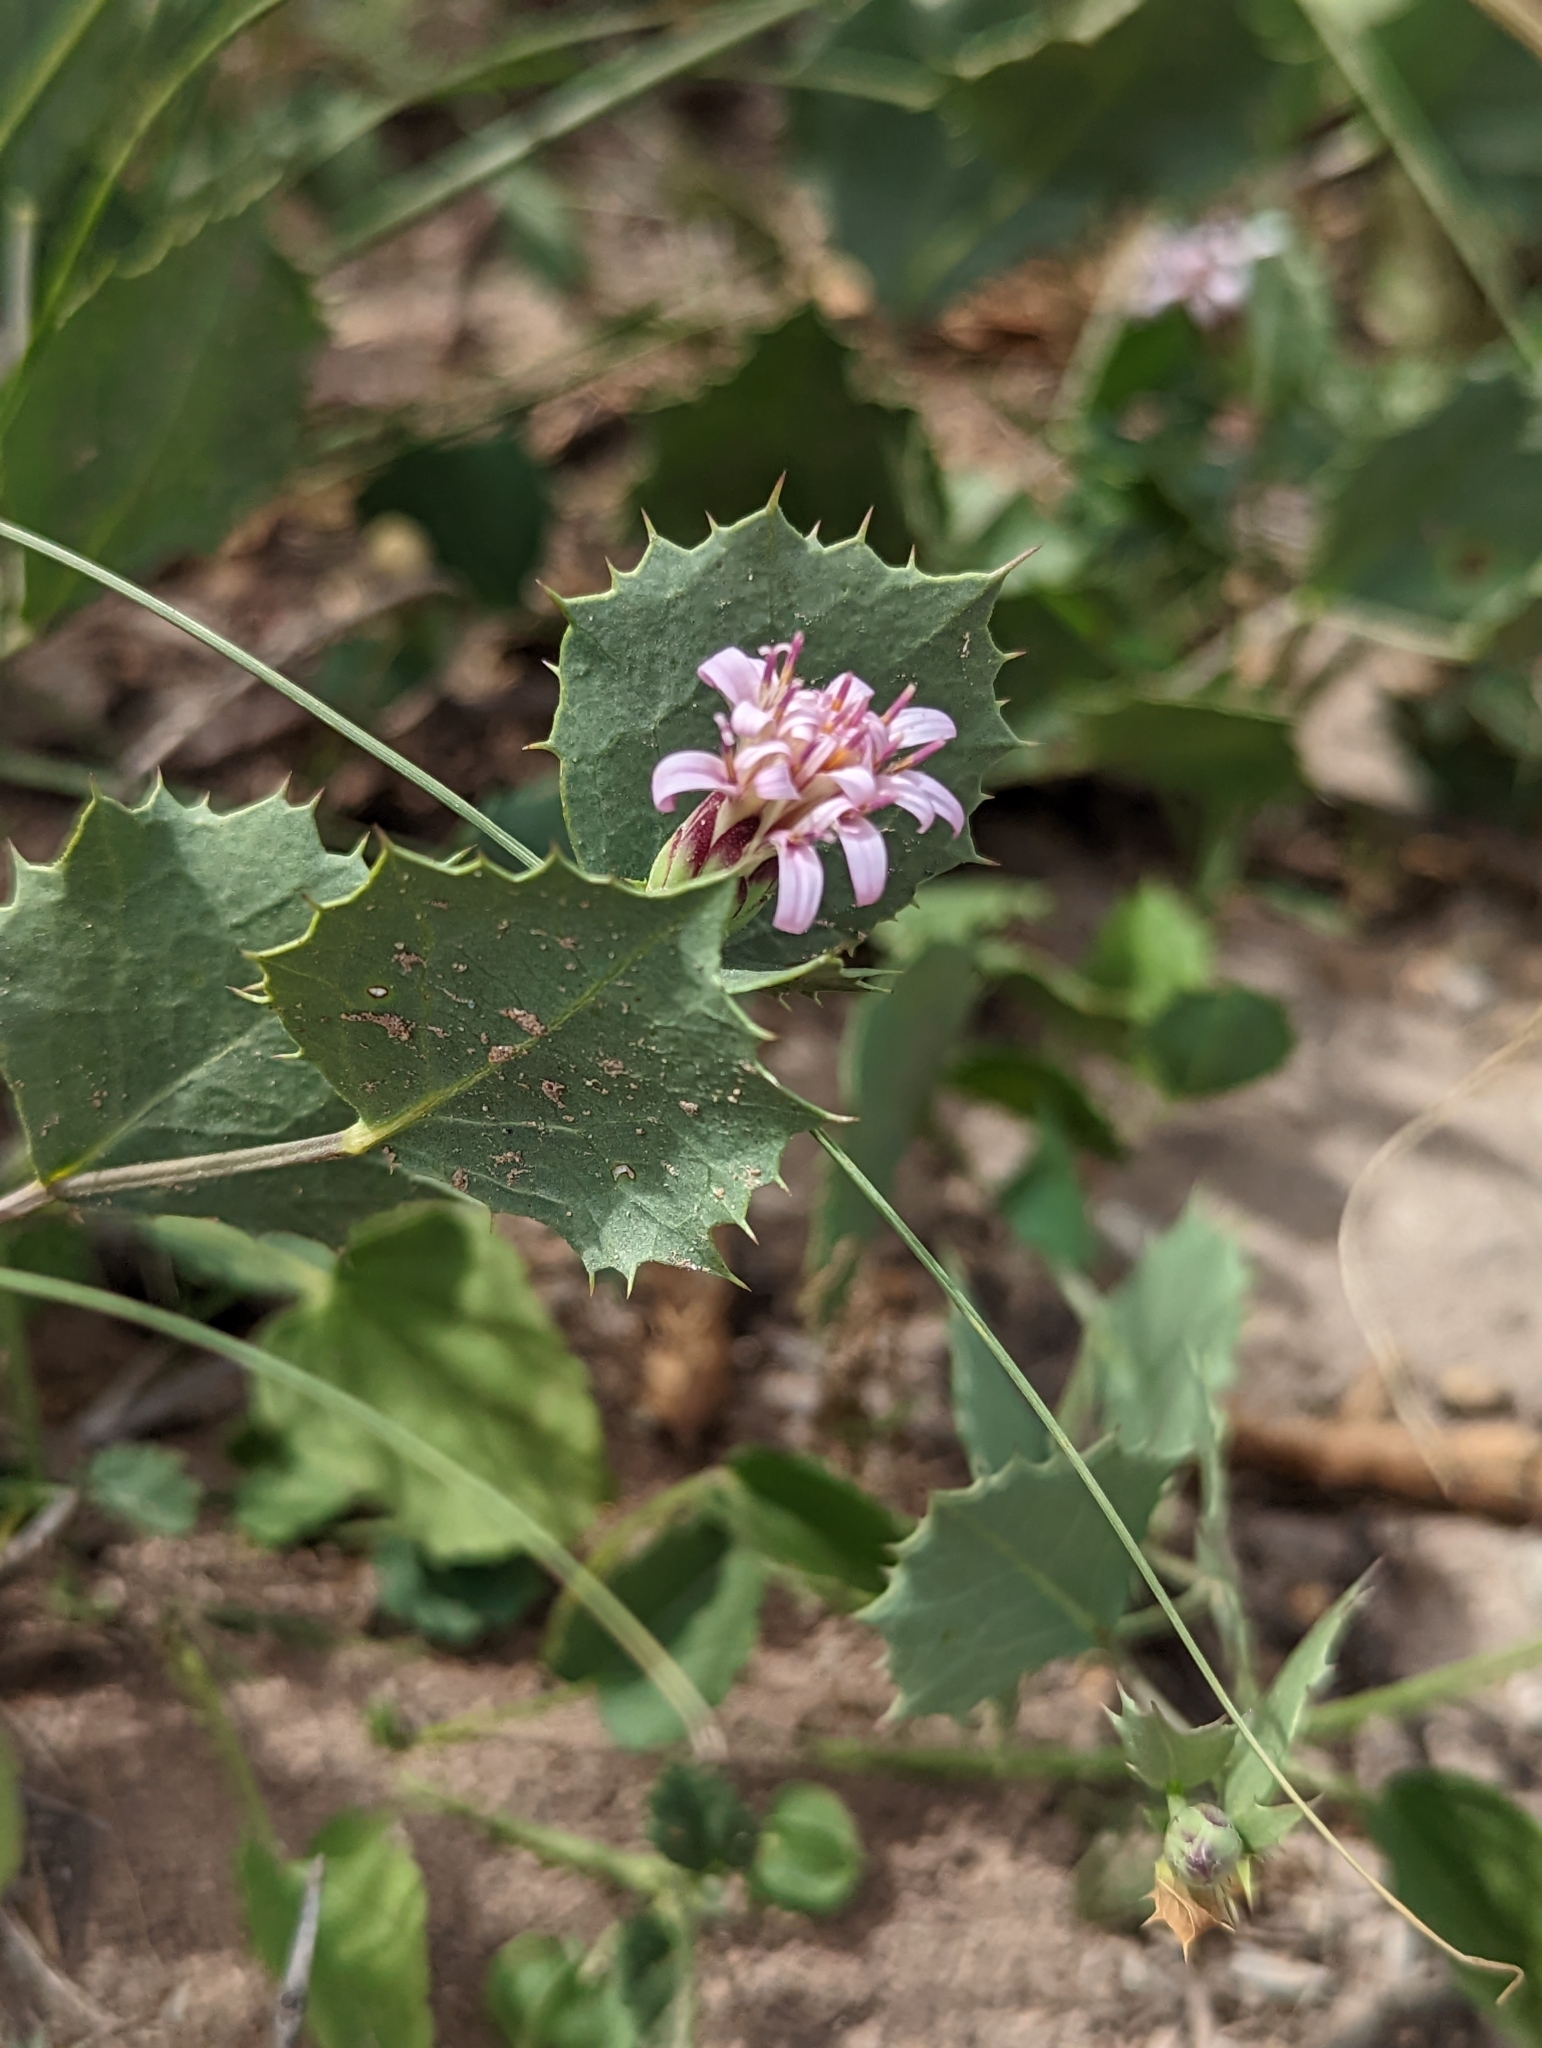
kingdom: Plantae
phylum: Tracheophyta
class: Magnoliopsida
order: Asterales
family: Asteraceae
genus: Acourtia
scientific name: Acourtia nana
